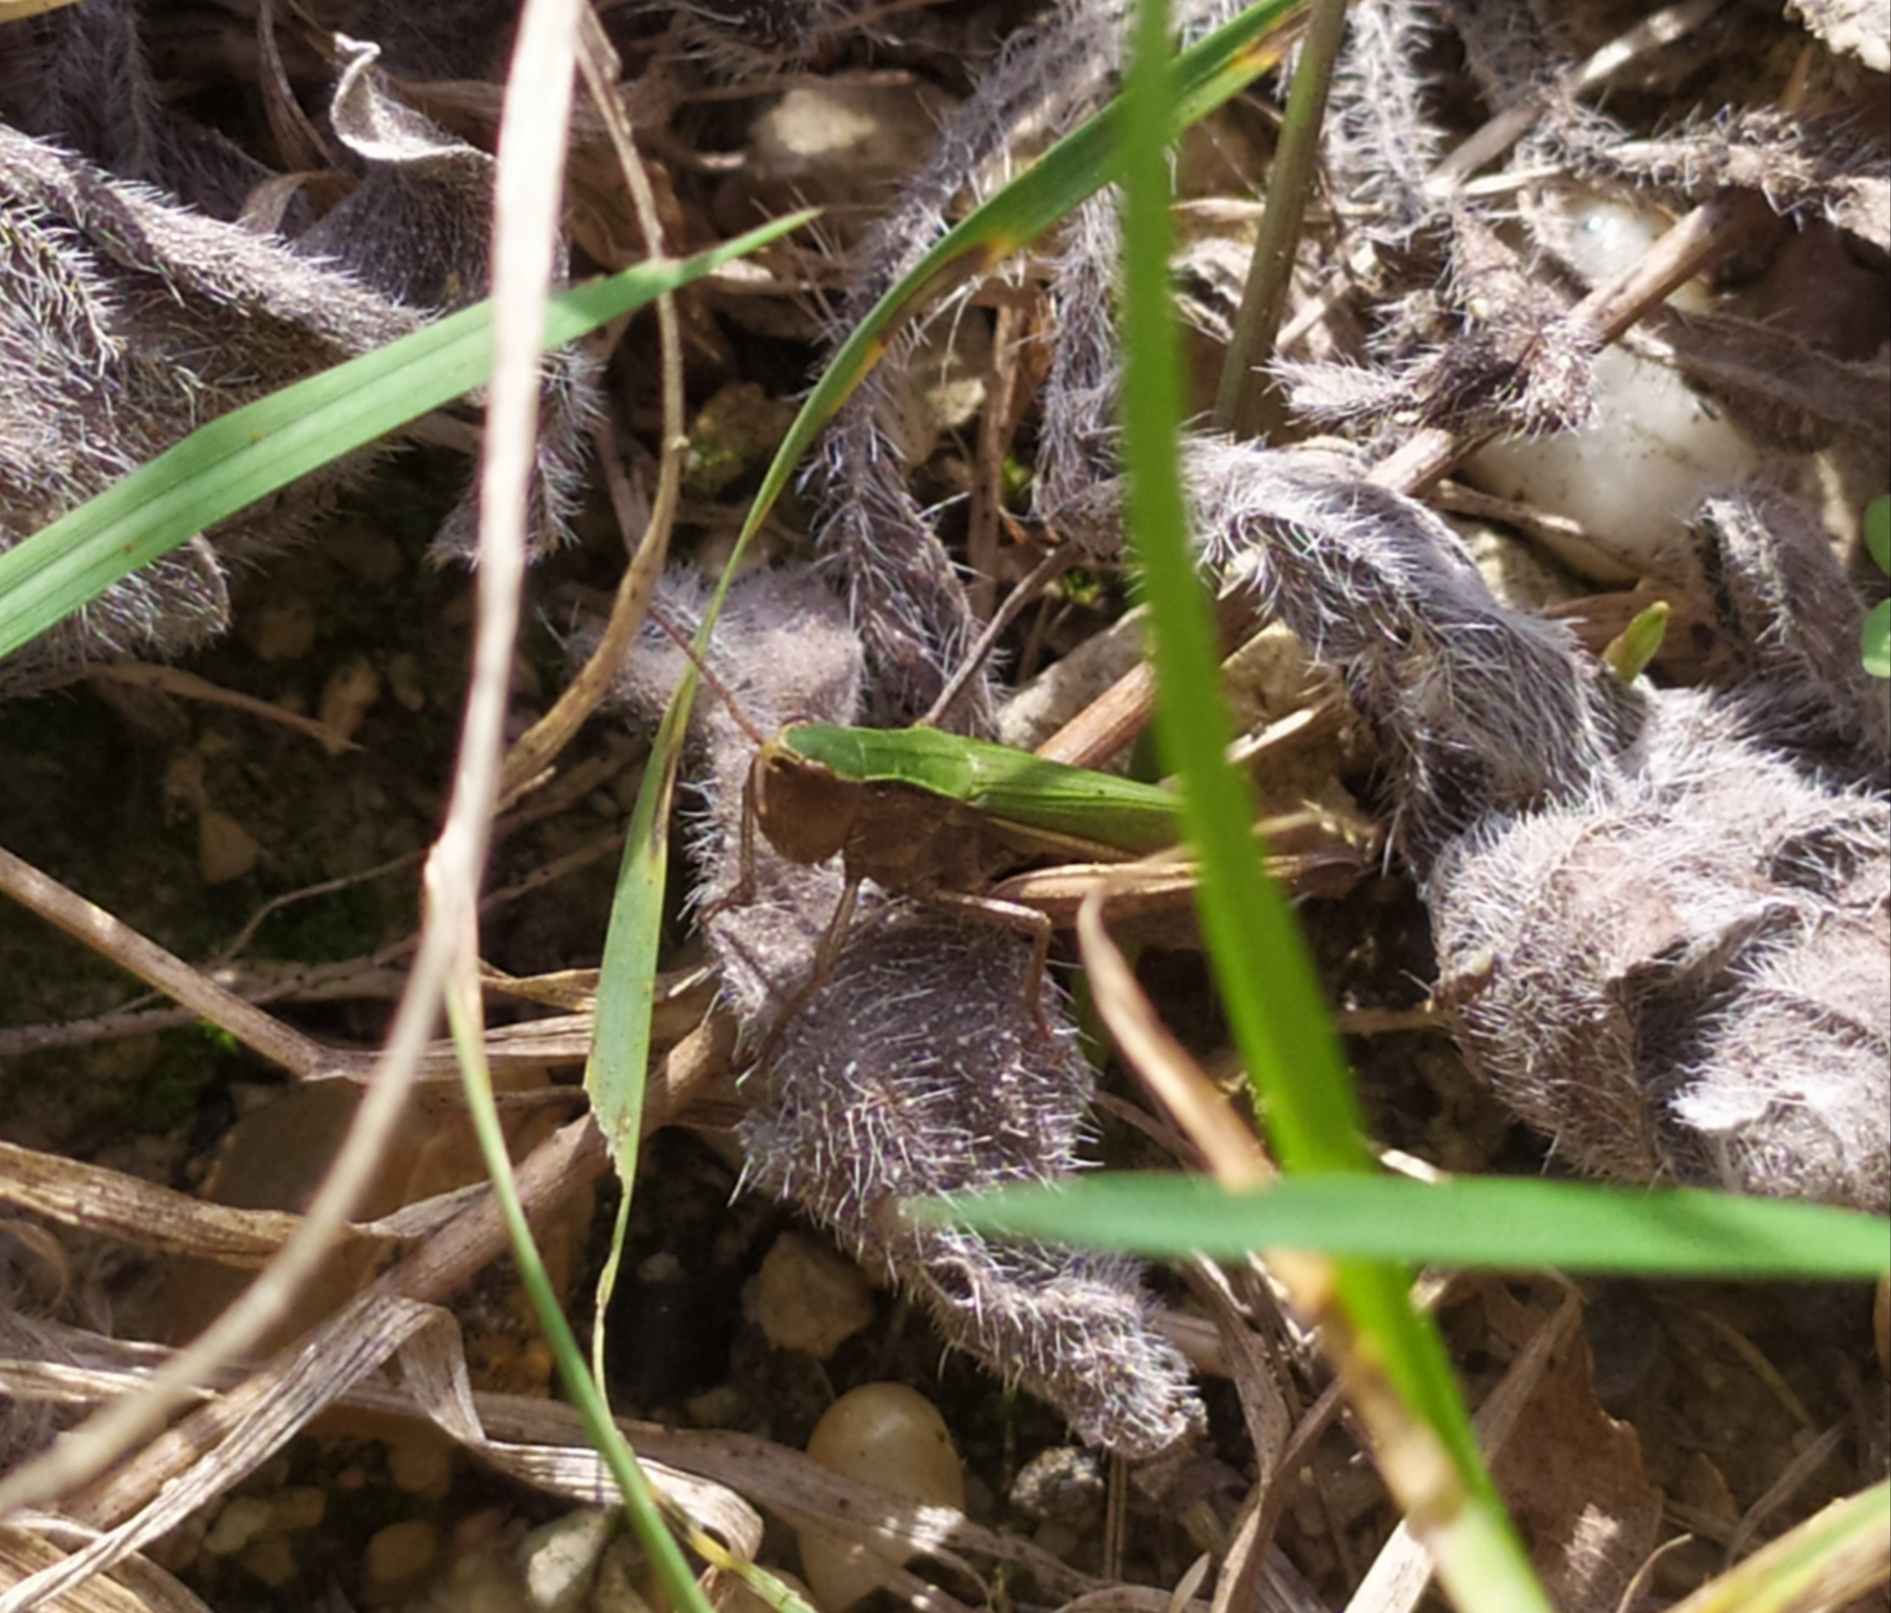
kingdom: Animalia
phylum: Arthropoda
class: Insecta
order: Orthoptera
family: Acrididae
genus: Chorthippus
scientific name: Chorthippus dorsatus
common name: Steppe grasshopper
